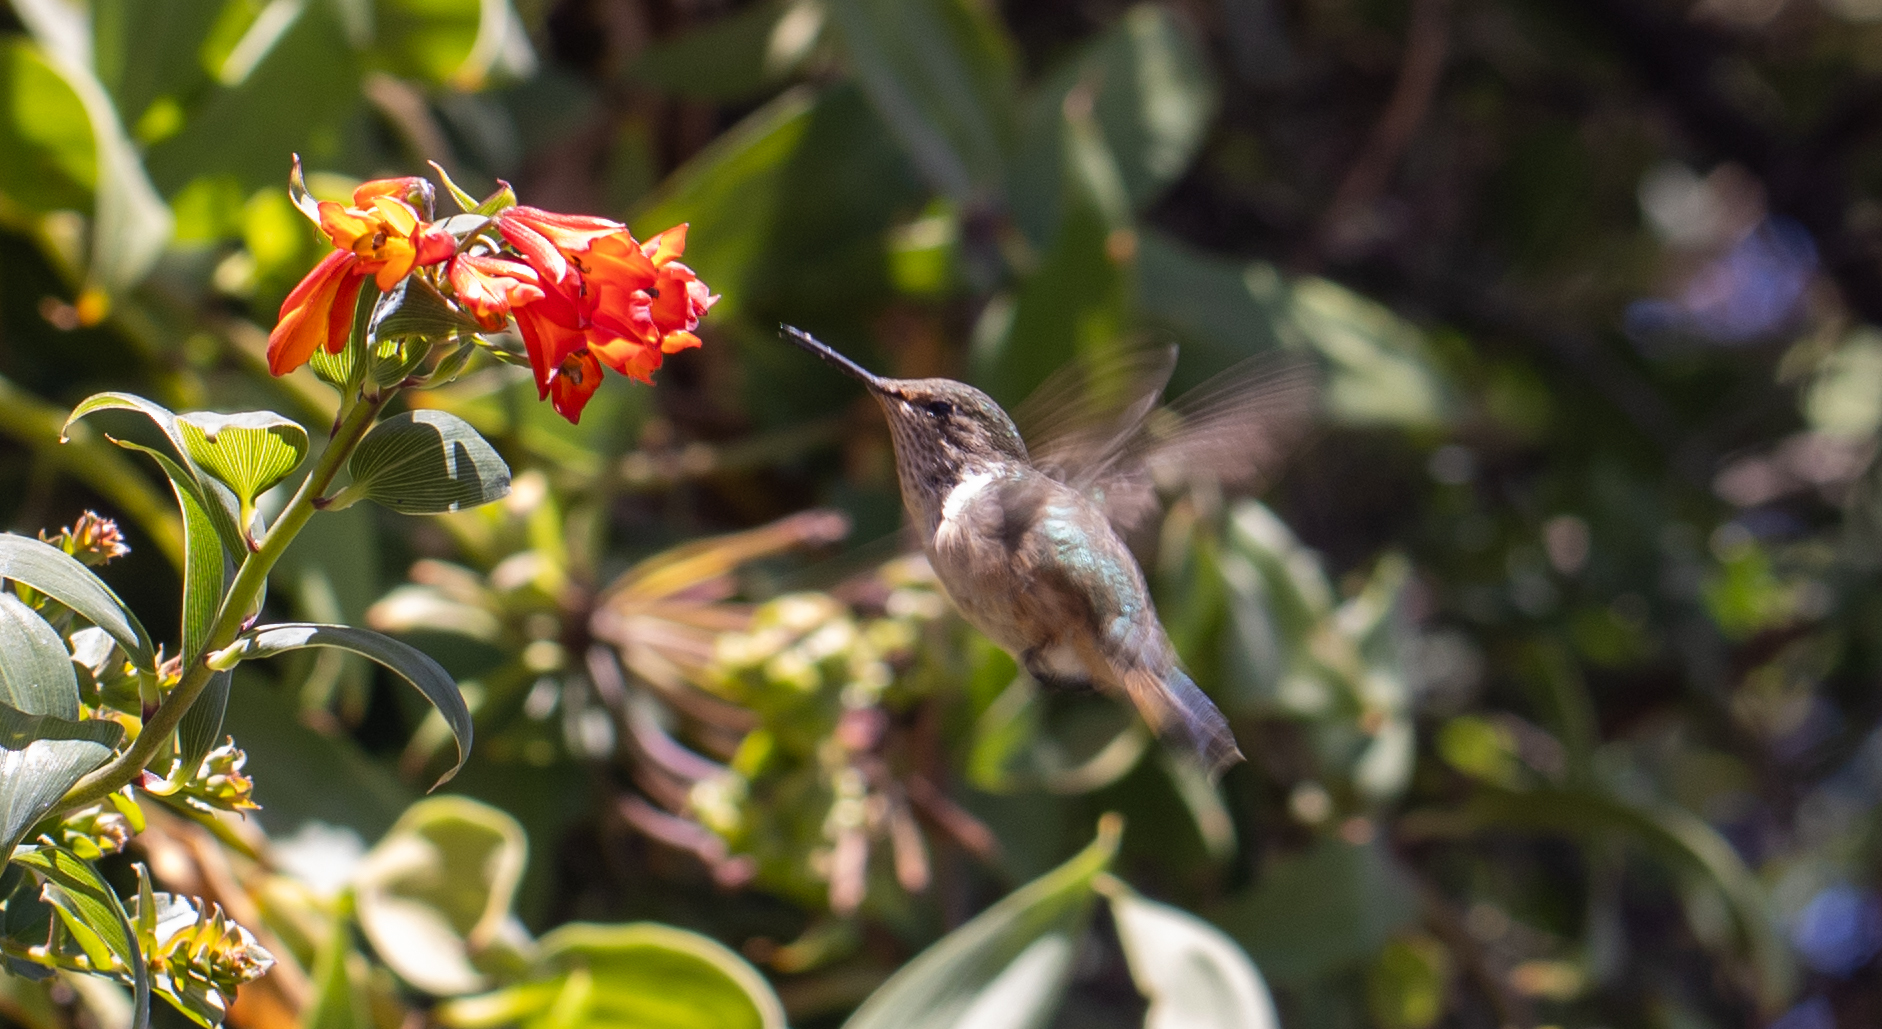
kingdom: Animalia
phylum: Chordata
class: Aves
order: Apodiformes
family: Trochilidae
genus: Selasphorus
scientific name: Selasphorus flammula
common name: Volcano hummingbird
